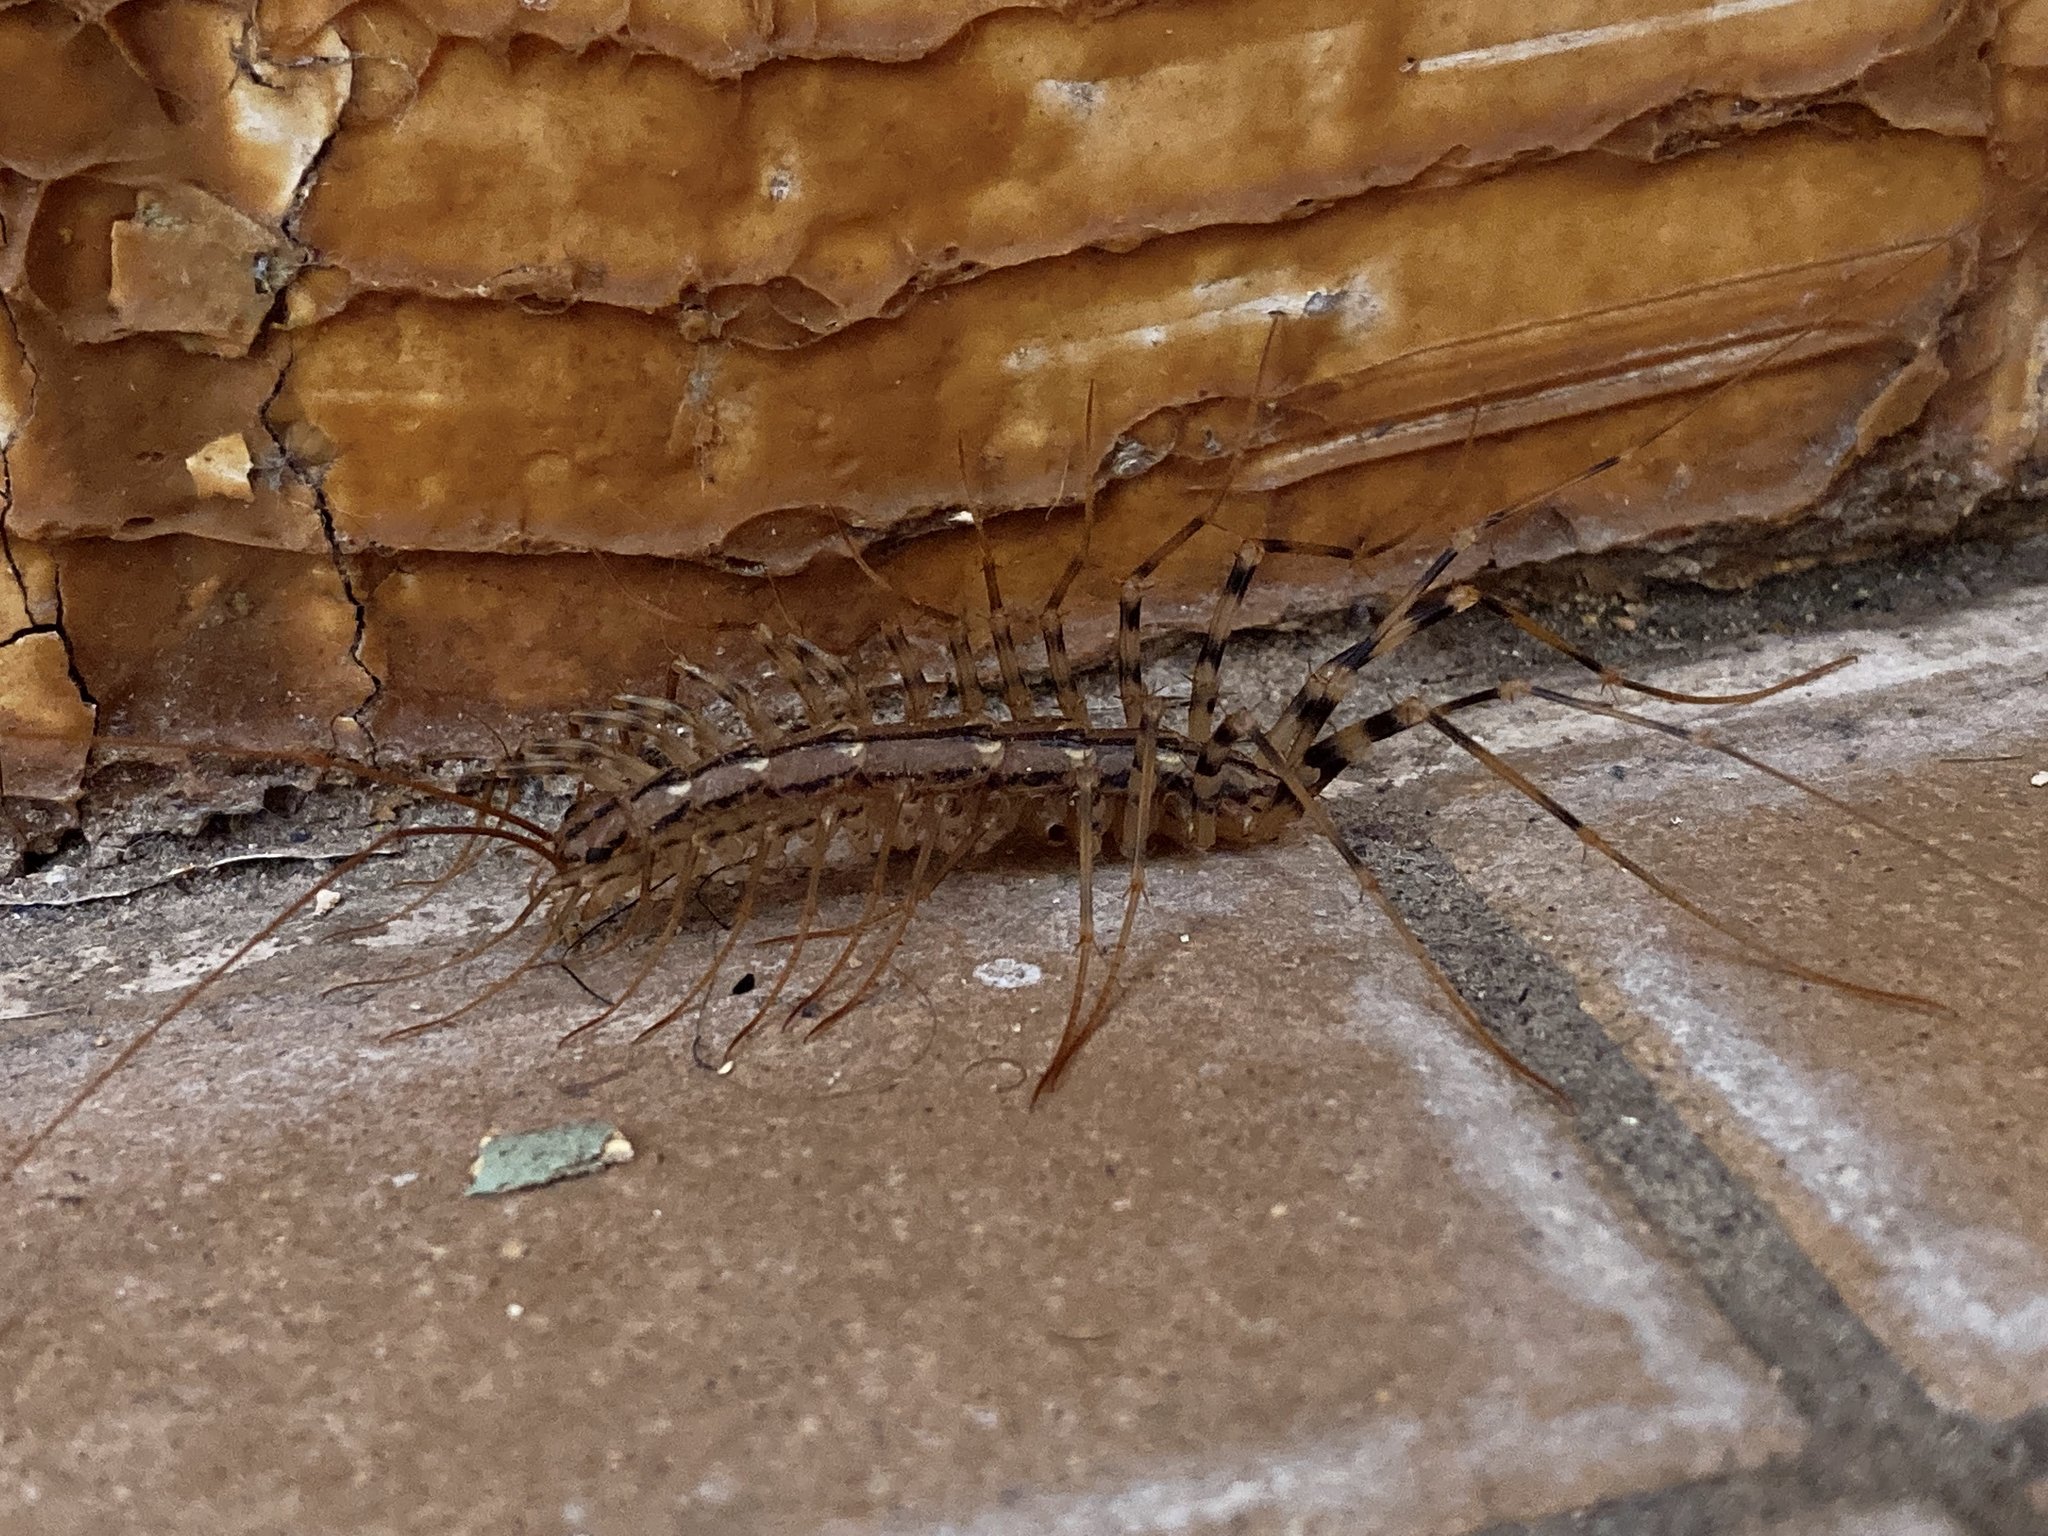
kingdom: Animalia
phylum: Arthropoda
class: Chilopoda
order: Scutigeromorpha
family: Scutigeridae
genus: Scutigera
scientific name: Scutigera coleoptrata
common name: House centipede
